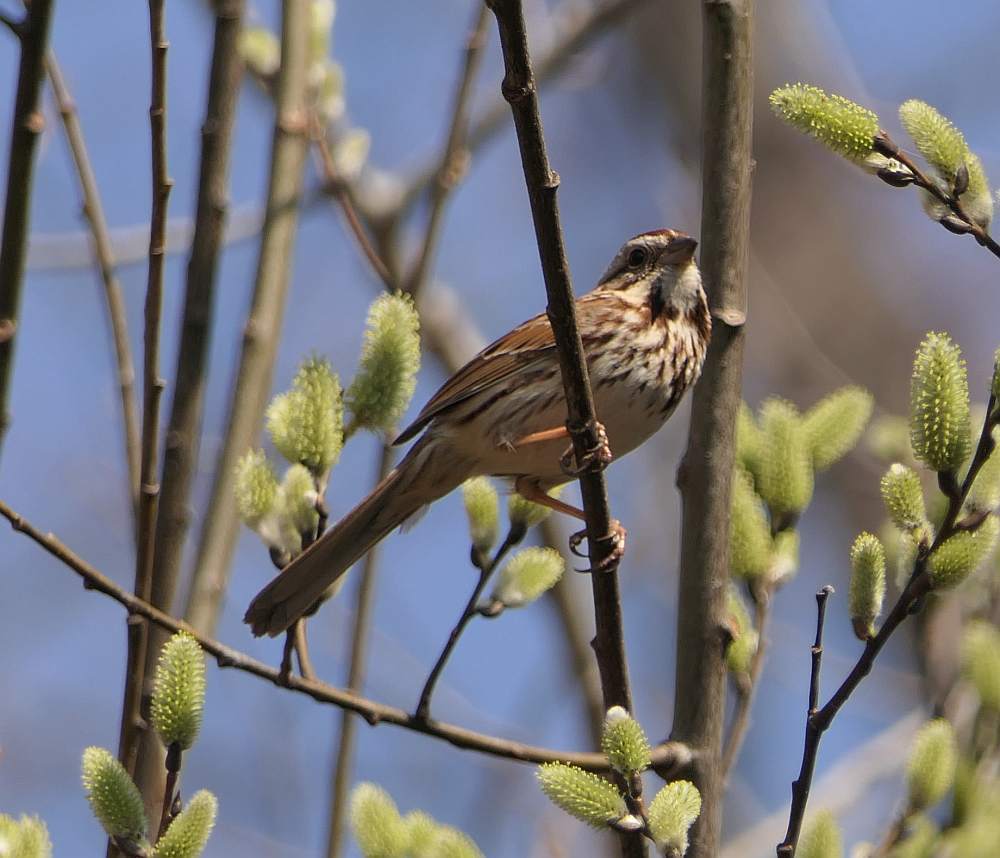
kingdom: Animalia
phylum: Chordata
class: Aves
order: Passeriformes
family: Passerellidae
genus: Melospiza
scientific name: Melospiza melodia
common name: Song sparrow
